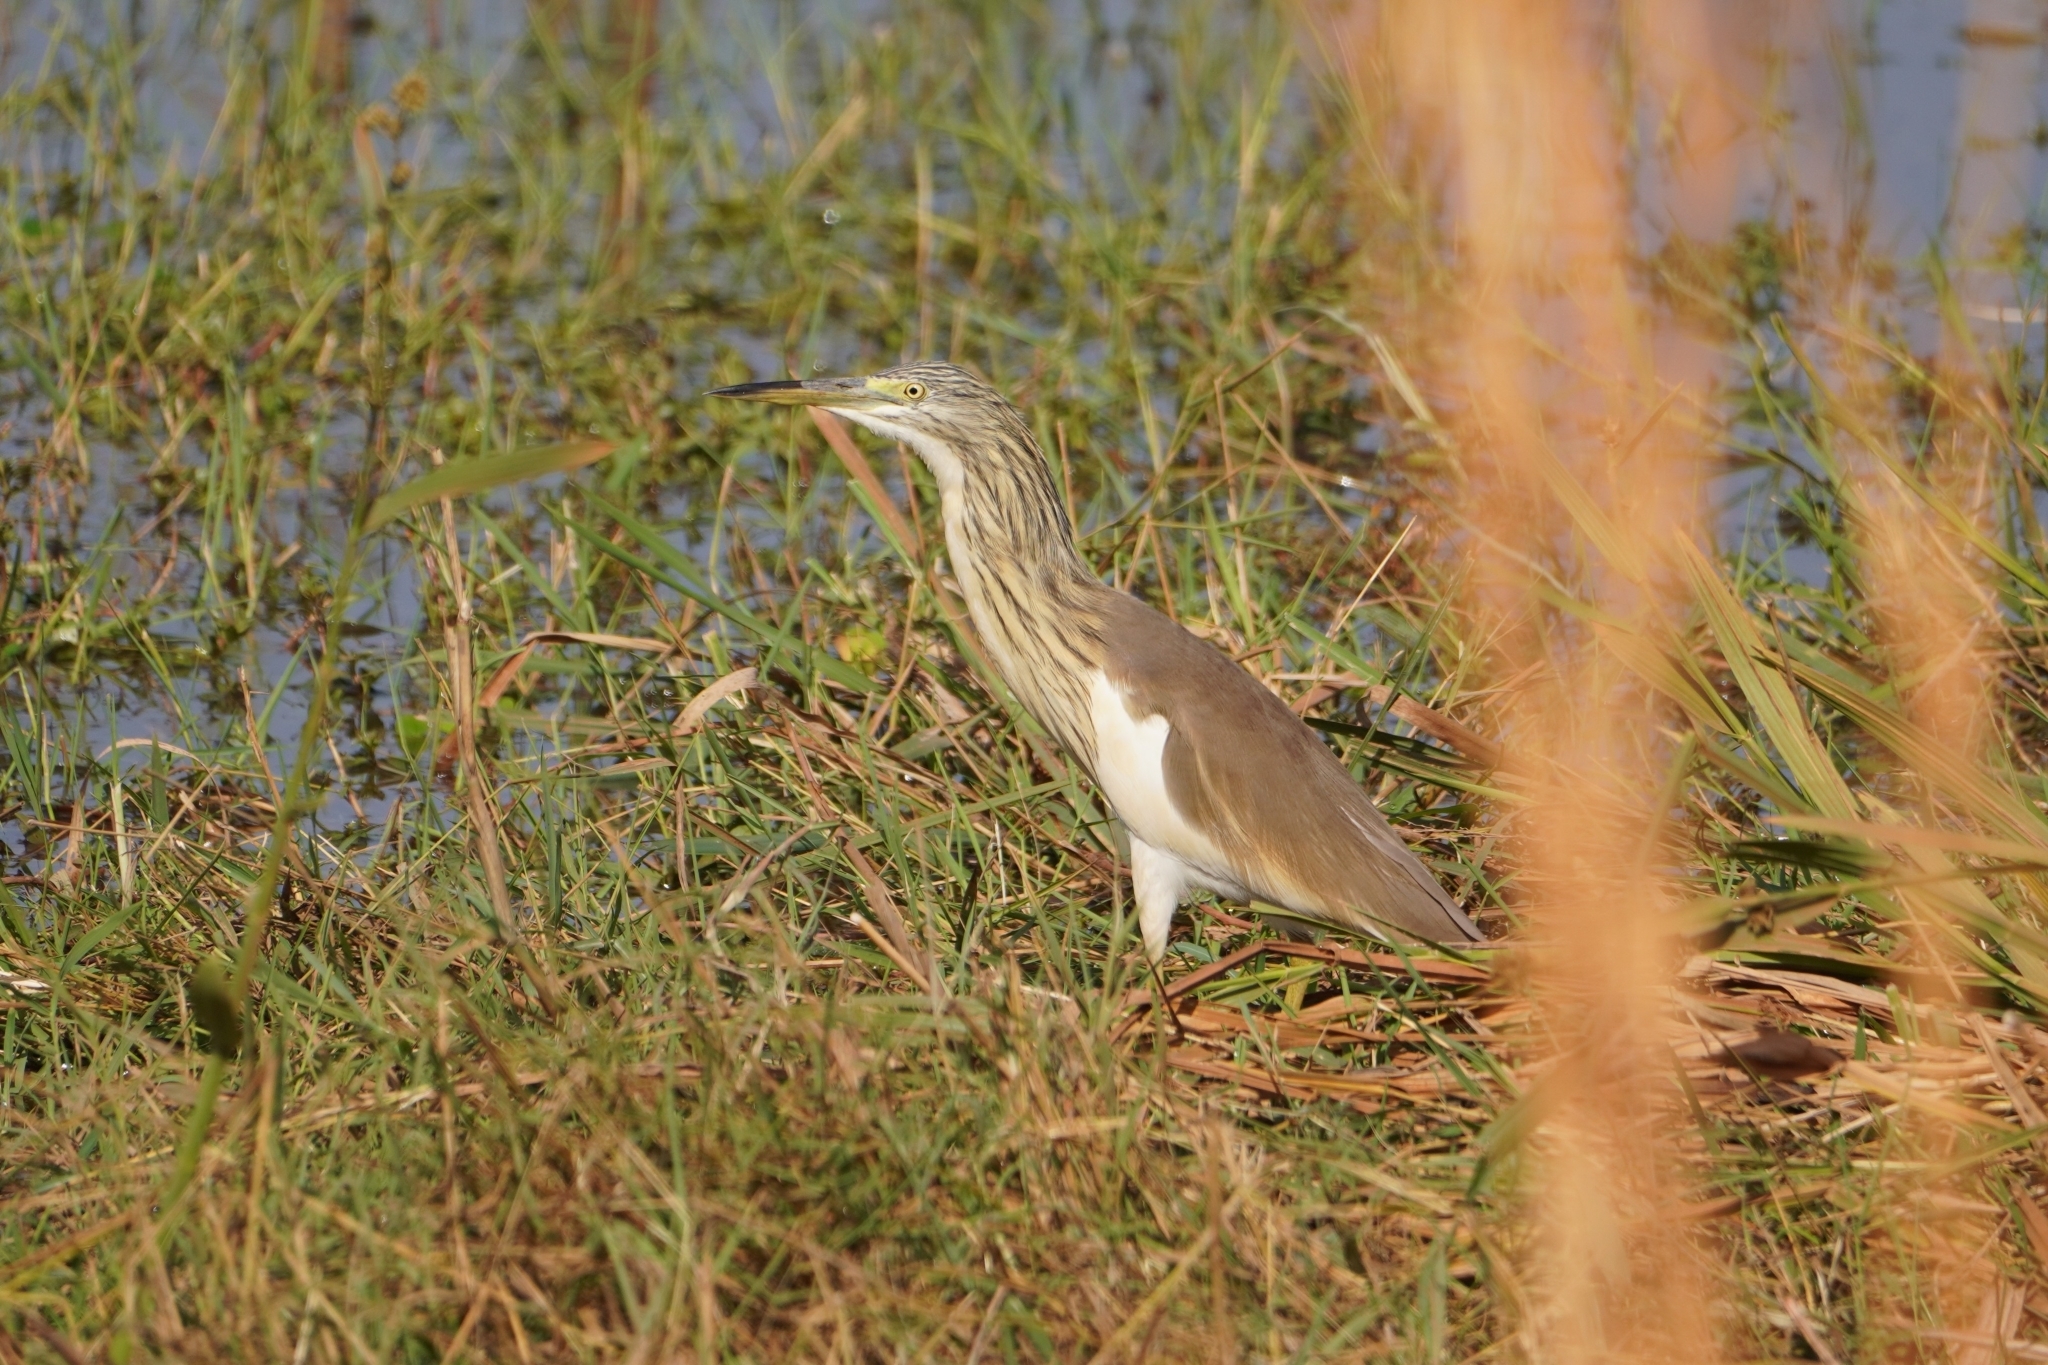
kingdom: Animalia
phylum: Chordata
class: Aves
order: Pelecaniformes
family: Ardeidae
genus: Ardeola
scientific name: Ardeola ralloides
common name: Squacco heron
